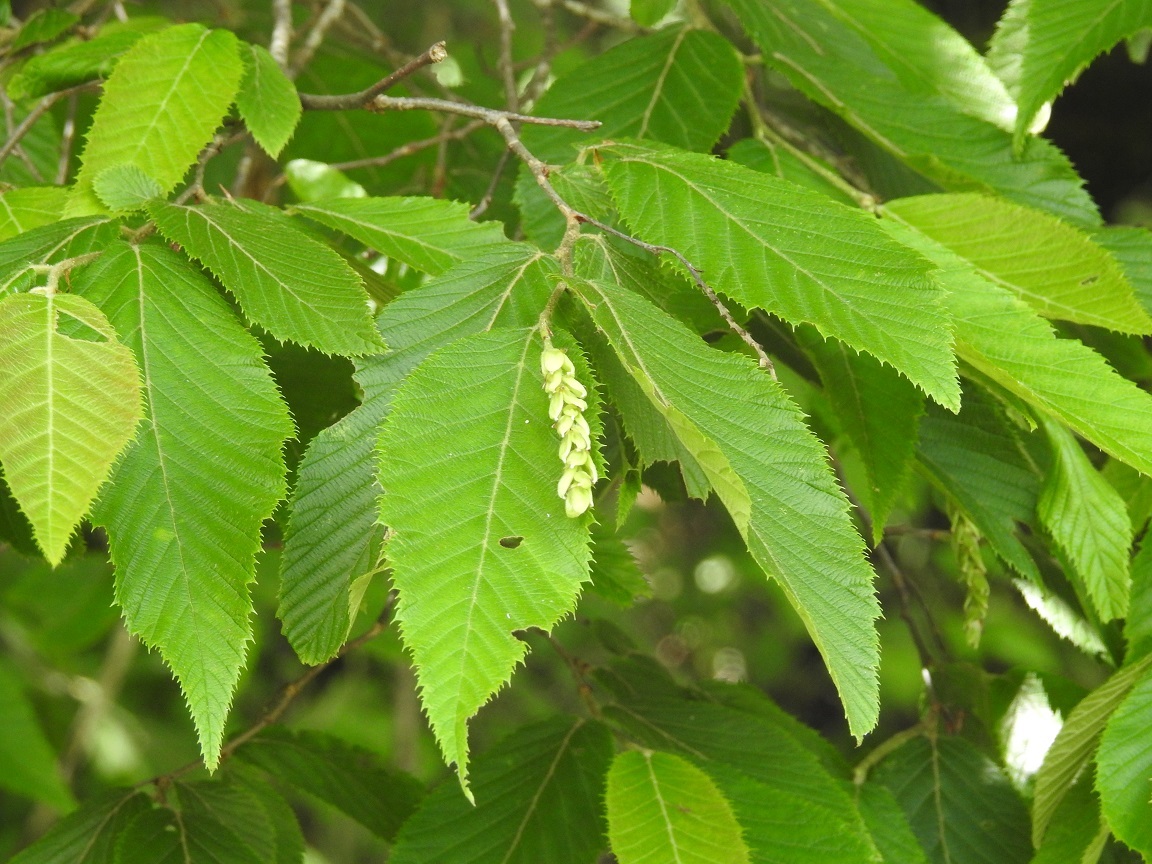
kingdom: Plantae
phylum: Tracheophyta
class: Magnoliopsida
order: Fagales
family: Betulaceae
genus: Ostrya
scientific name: Ostrya virginiana
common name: Ironwood
